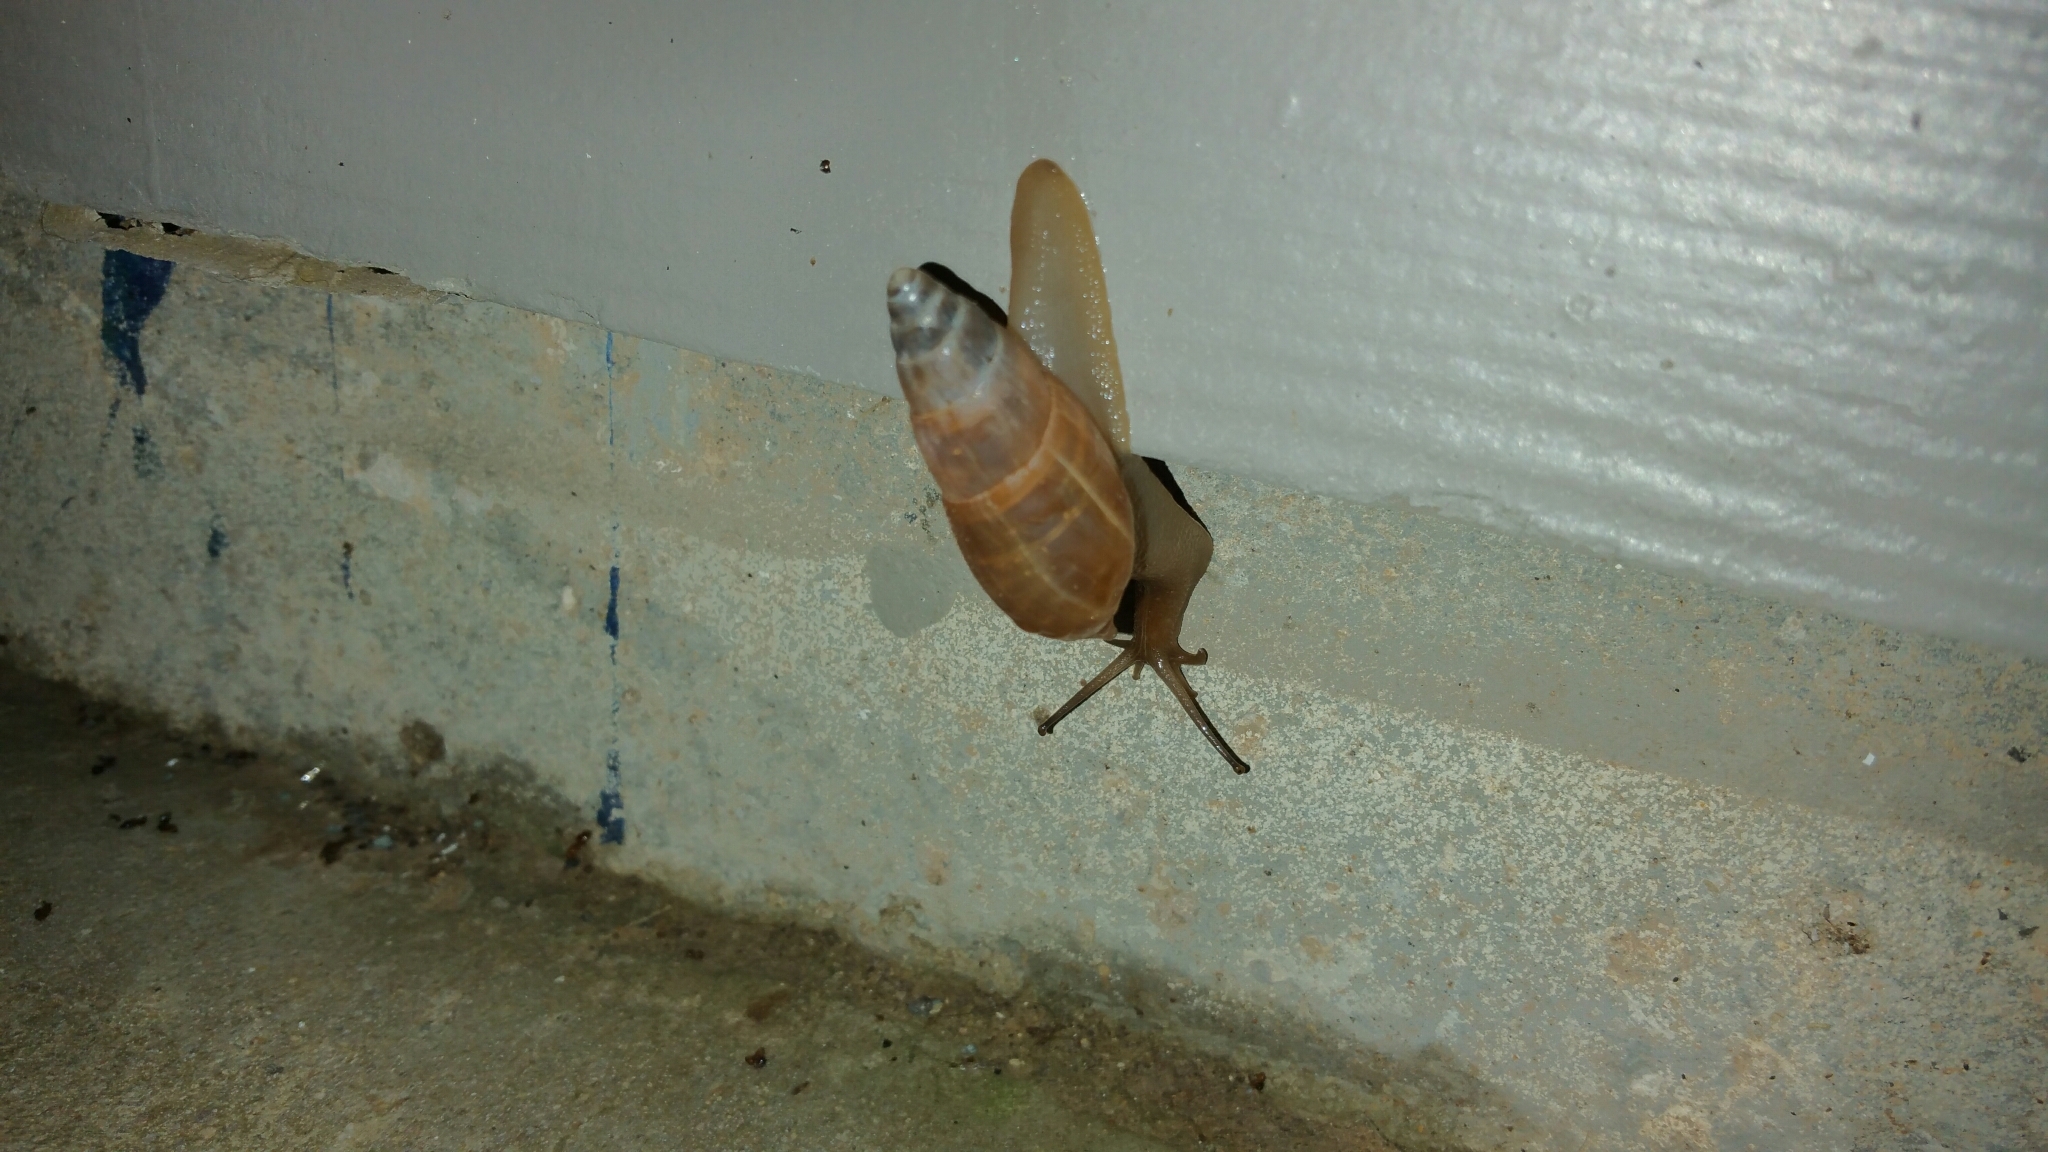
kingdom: Animalia
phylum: Mollusca
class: Gastropoda
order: Stylommatophora
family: Spiraxidae
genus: Euglandina
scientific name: Euglandina singleyana
